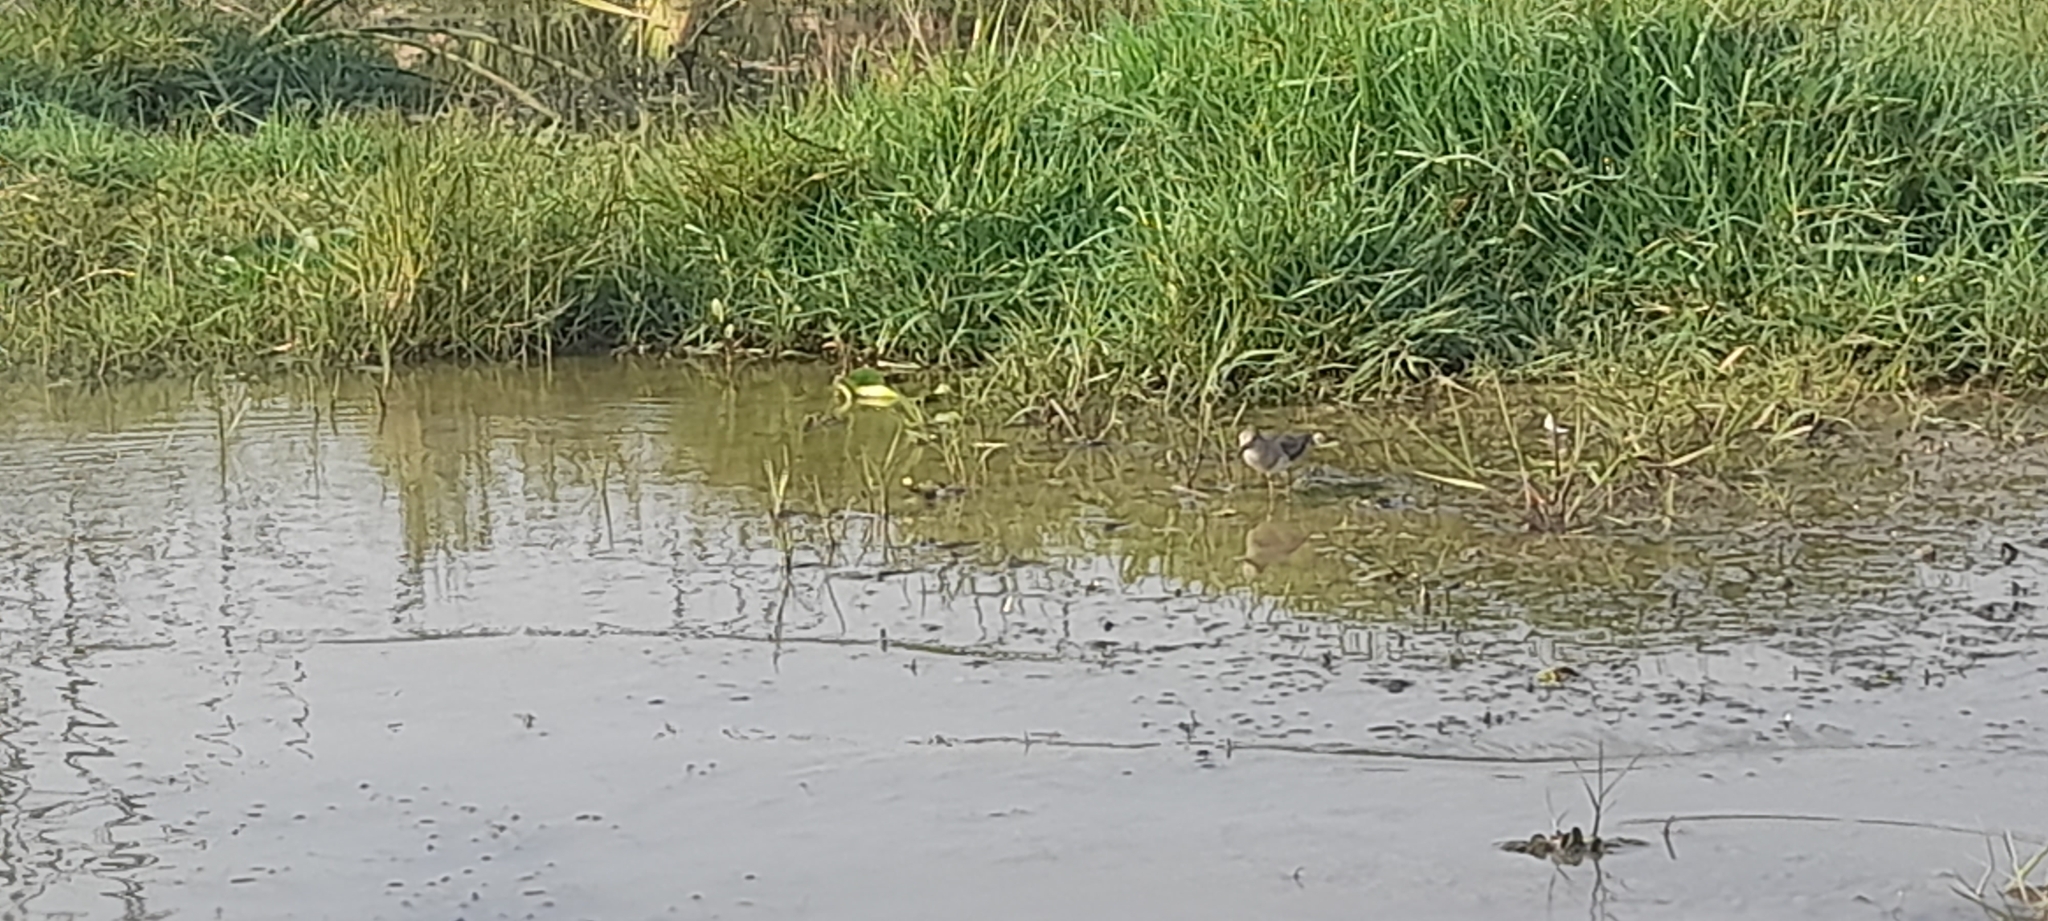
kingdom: Animalia
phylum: Chordata
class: Aves
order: Charadriiformes
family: Scolopacidae
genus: Calidris
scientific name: Calidris temminckii
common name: Temminck's stint
